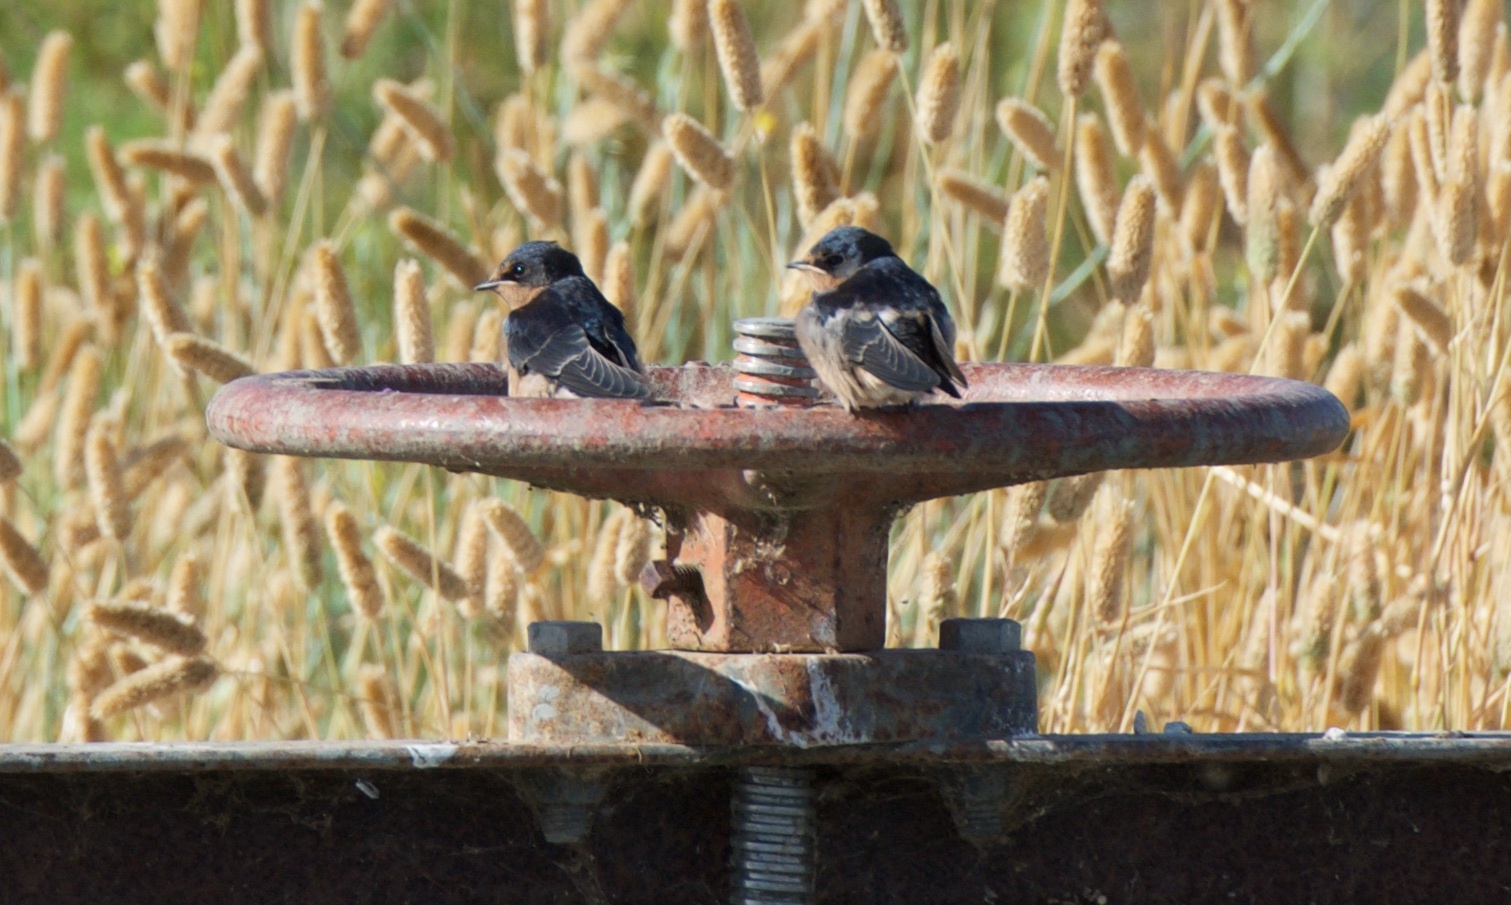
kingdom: Animalia
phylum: Chordata
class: Aves
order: Passeriformes
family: Hirundinidae
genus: Hirundo
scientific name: Hirundo rustica
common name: Barn swallow
